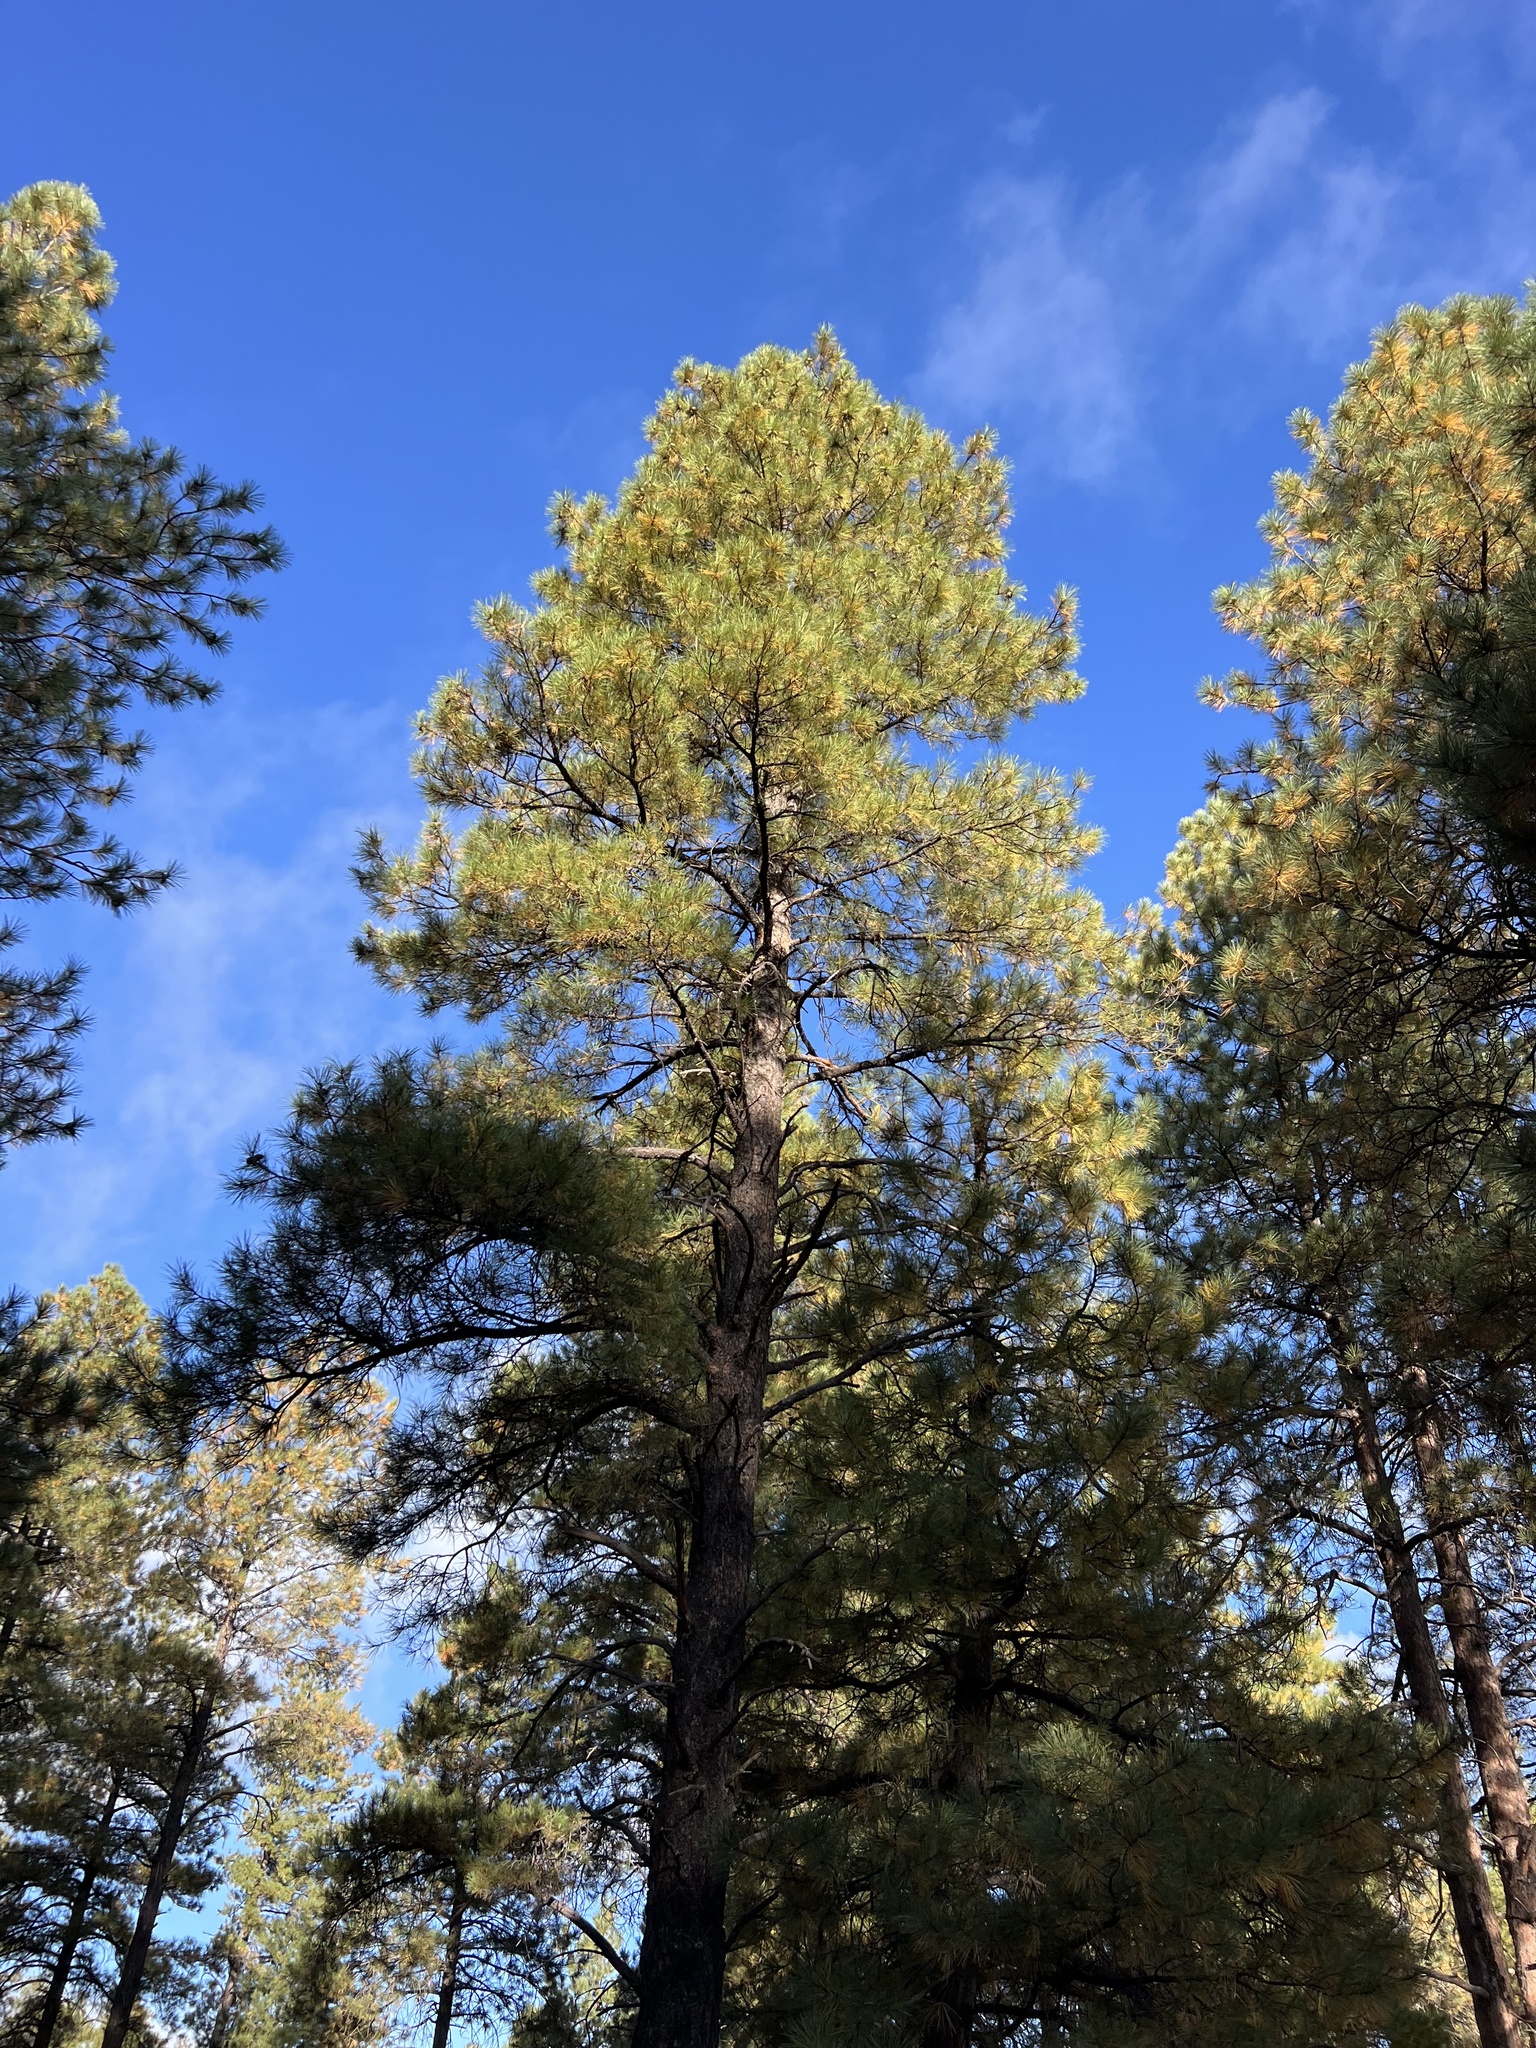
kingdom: Plantae
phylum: Tracheophyta
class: Pinopsida
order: Pinales
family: Pinaceae
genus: Pinus
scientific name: Pinus ponderosa
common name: Western yellow-pine
